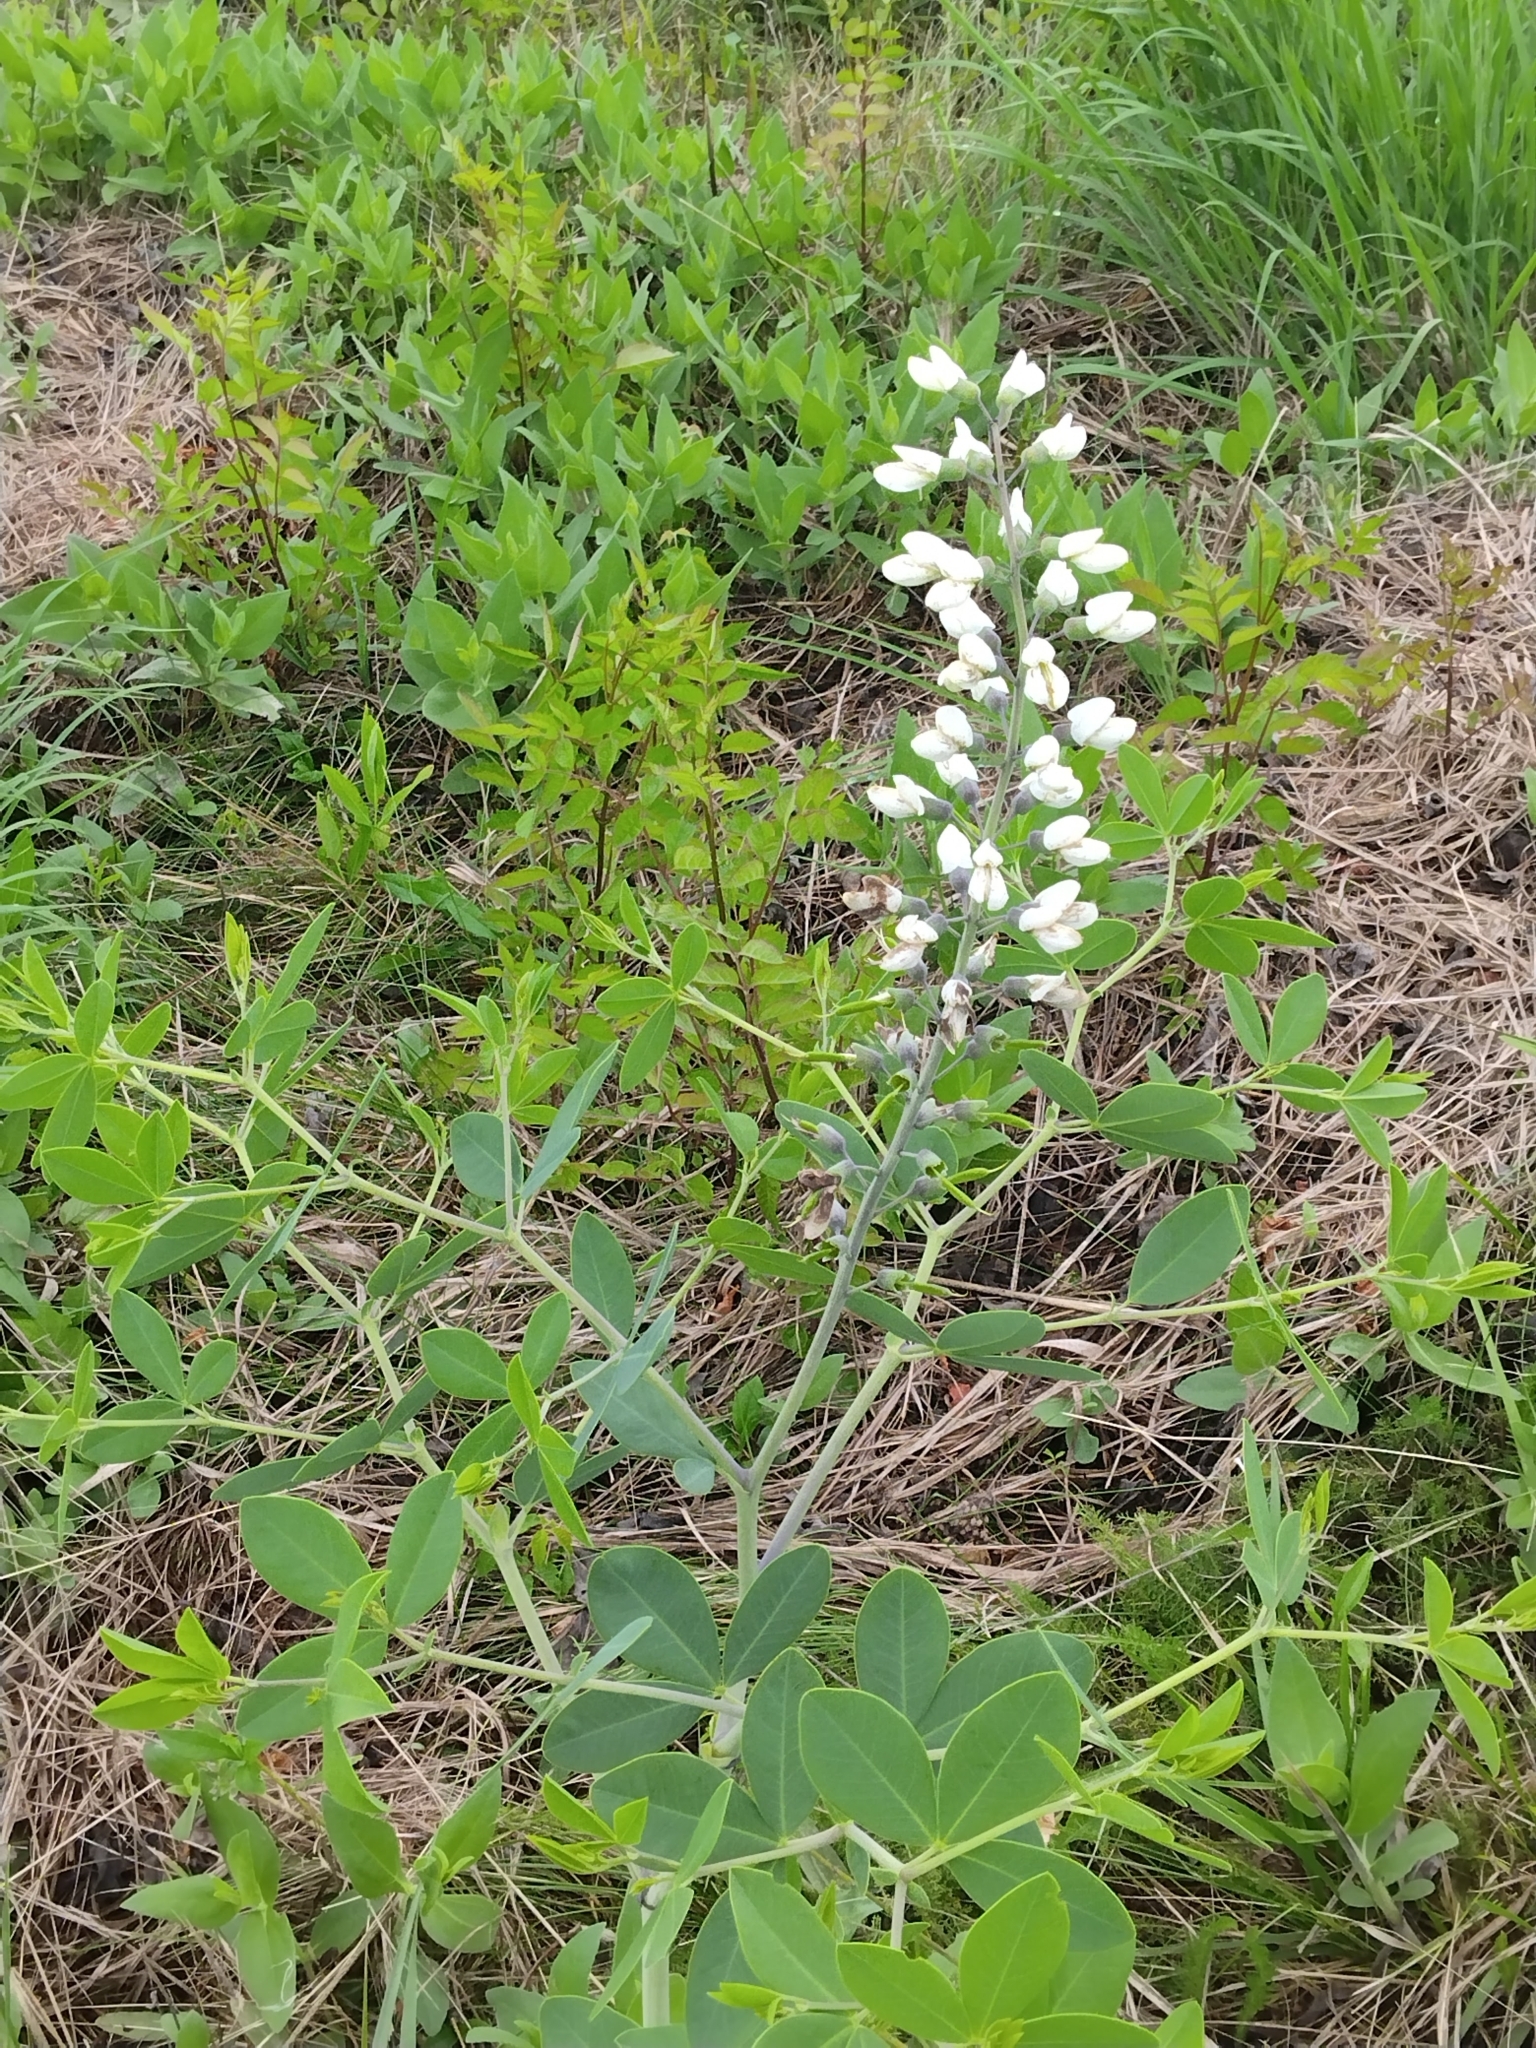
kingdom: Plantae
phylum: Tracheophyta
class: Magnoliopsida
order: Fabales
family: Fabaceae
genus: Baptisia
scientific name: Baptisia alba
